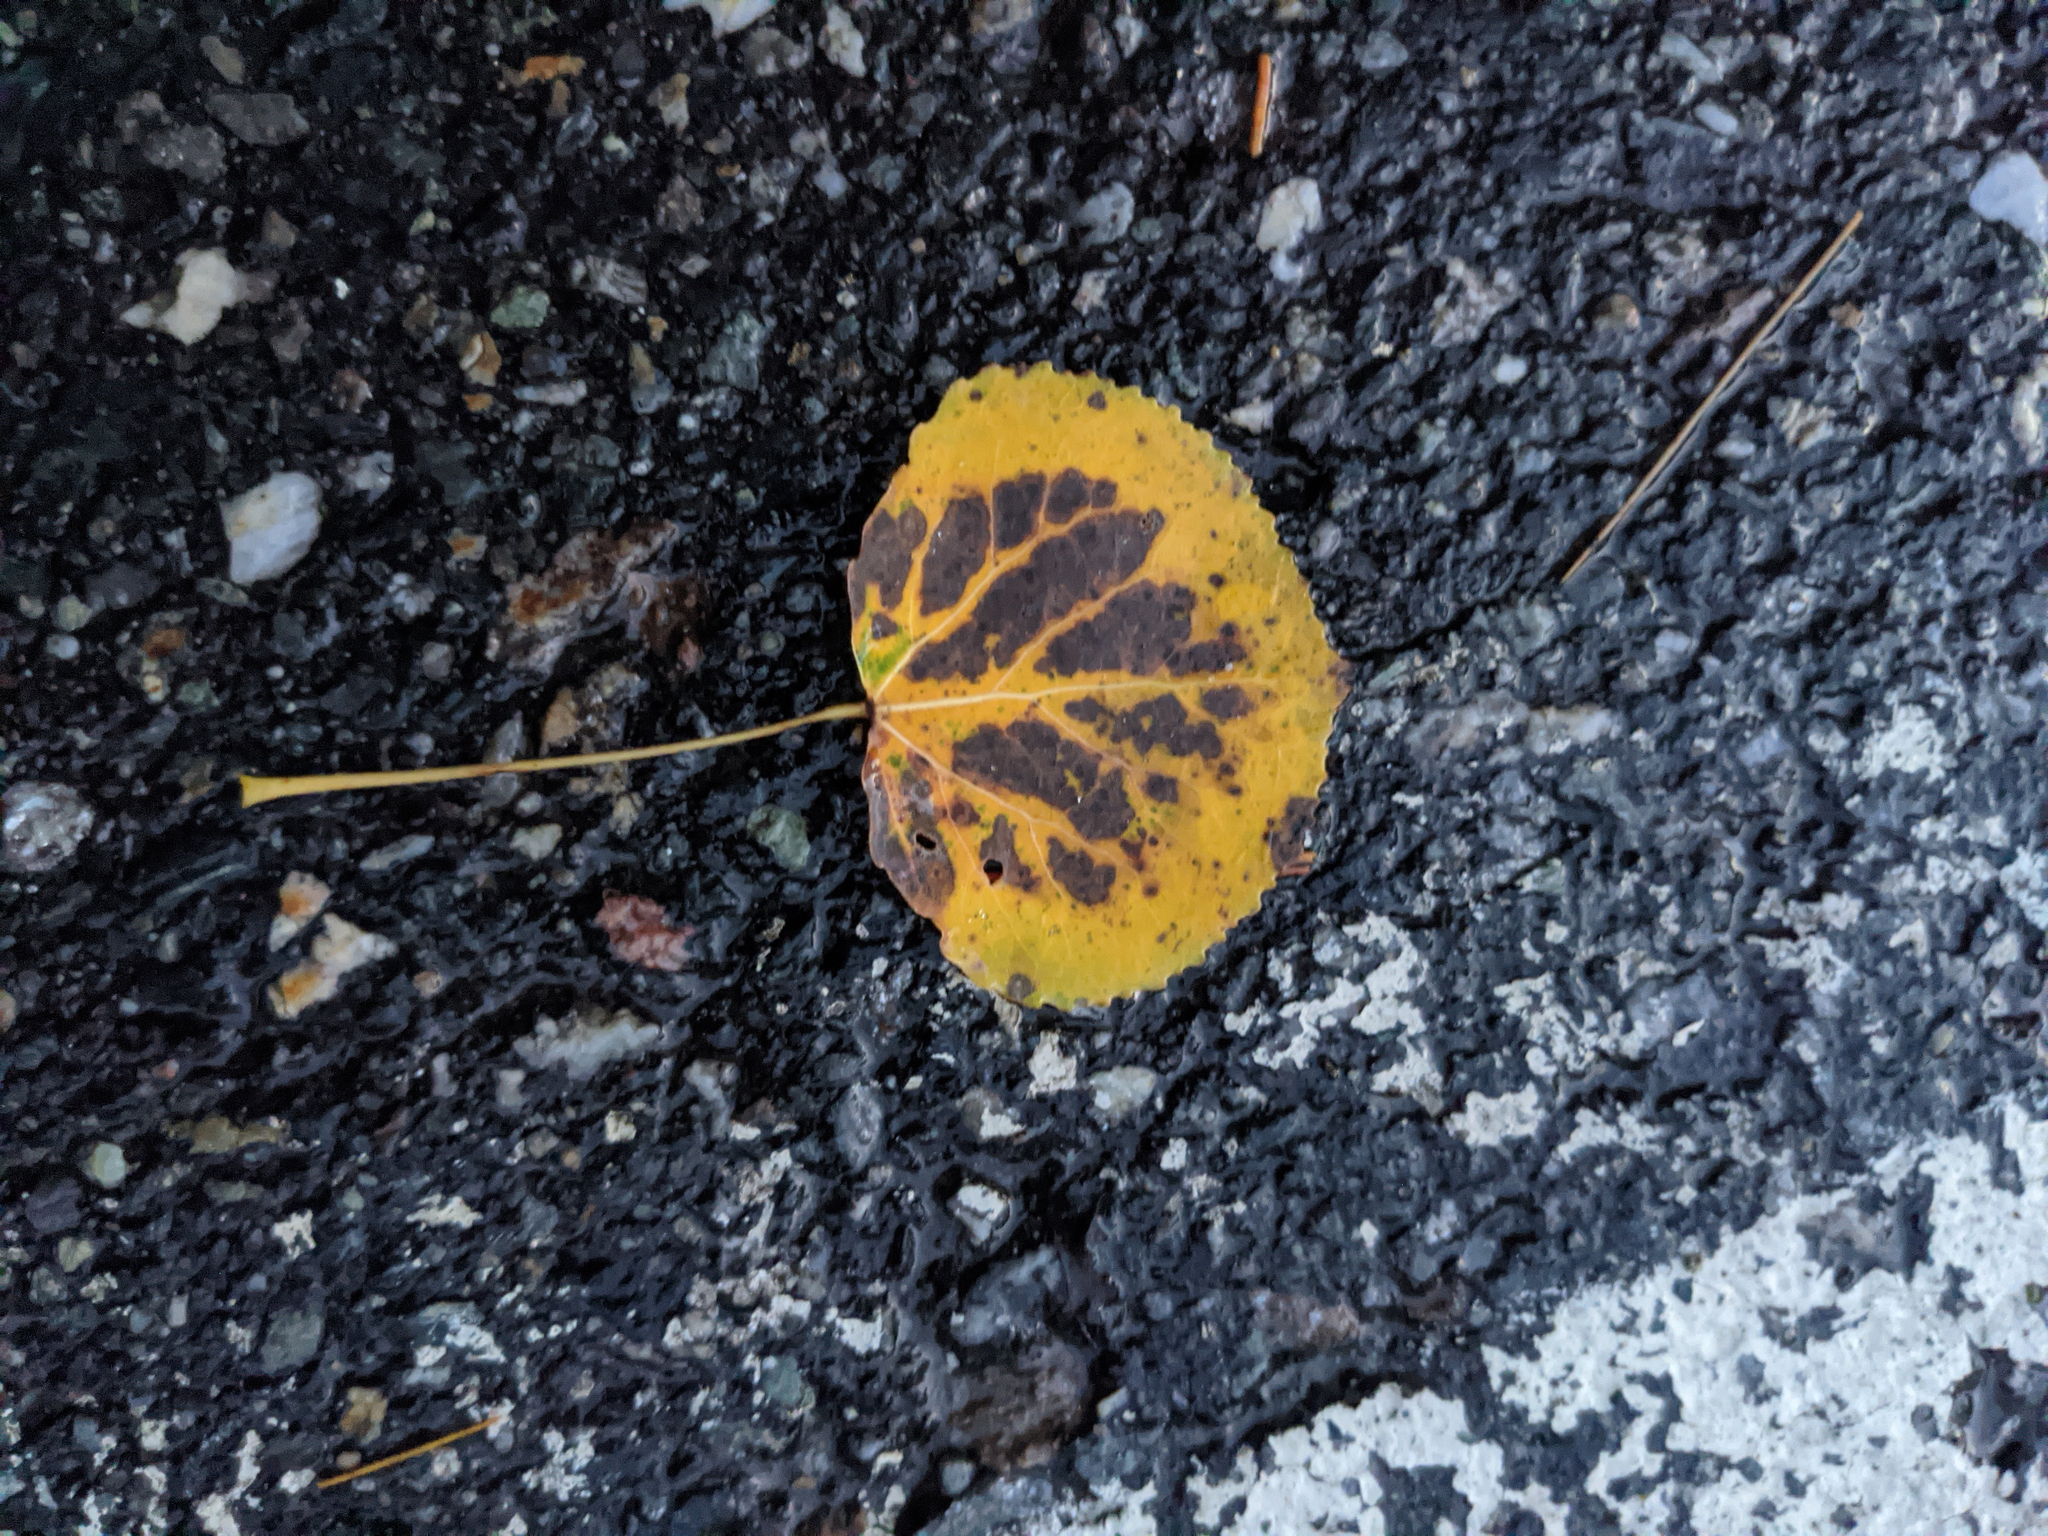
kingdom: Plantae
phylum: Tracheophyta
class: Magnoliopsida
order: Malpighiales
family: Salicaceae
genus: Populus
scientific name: Populus tremuloides
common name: Quaking aspen
